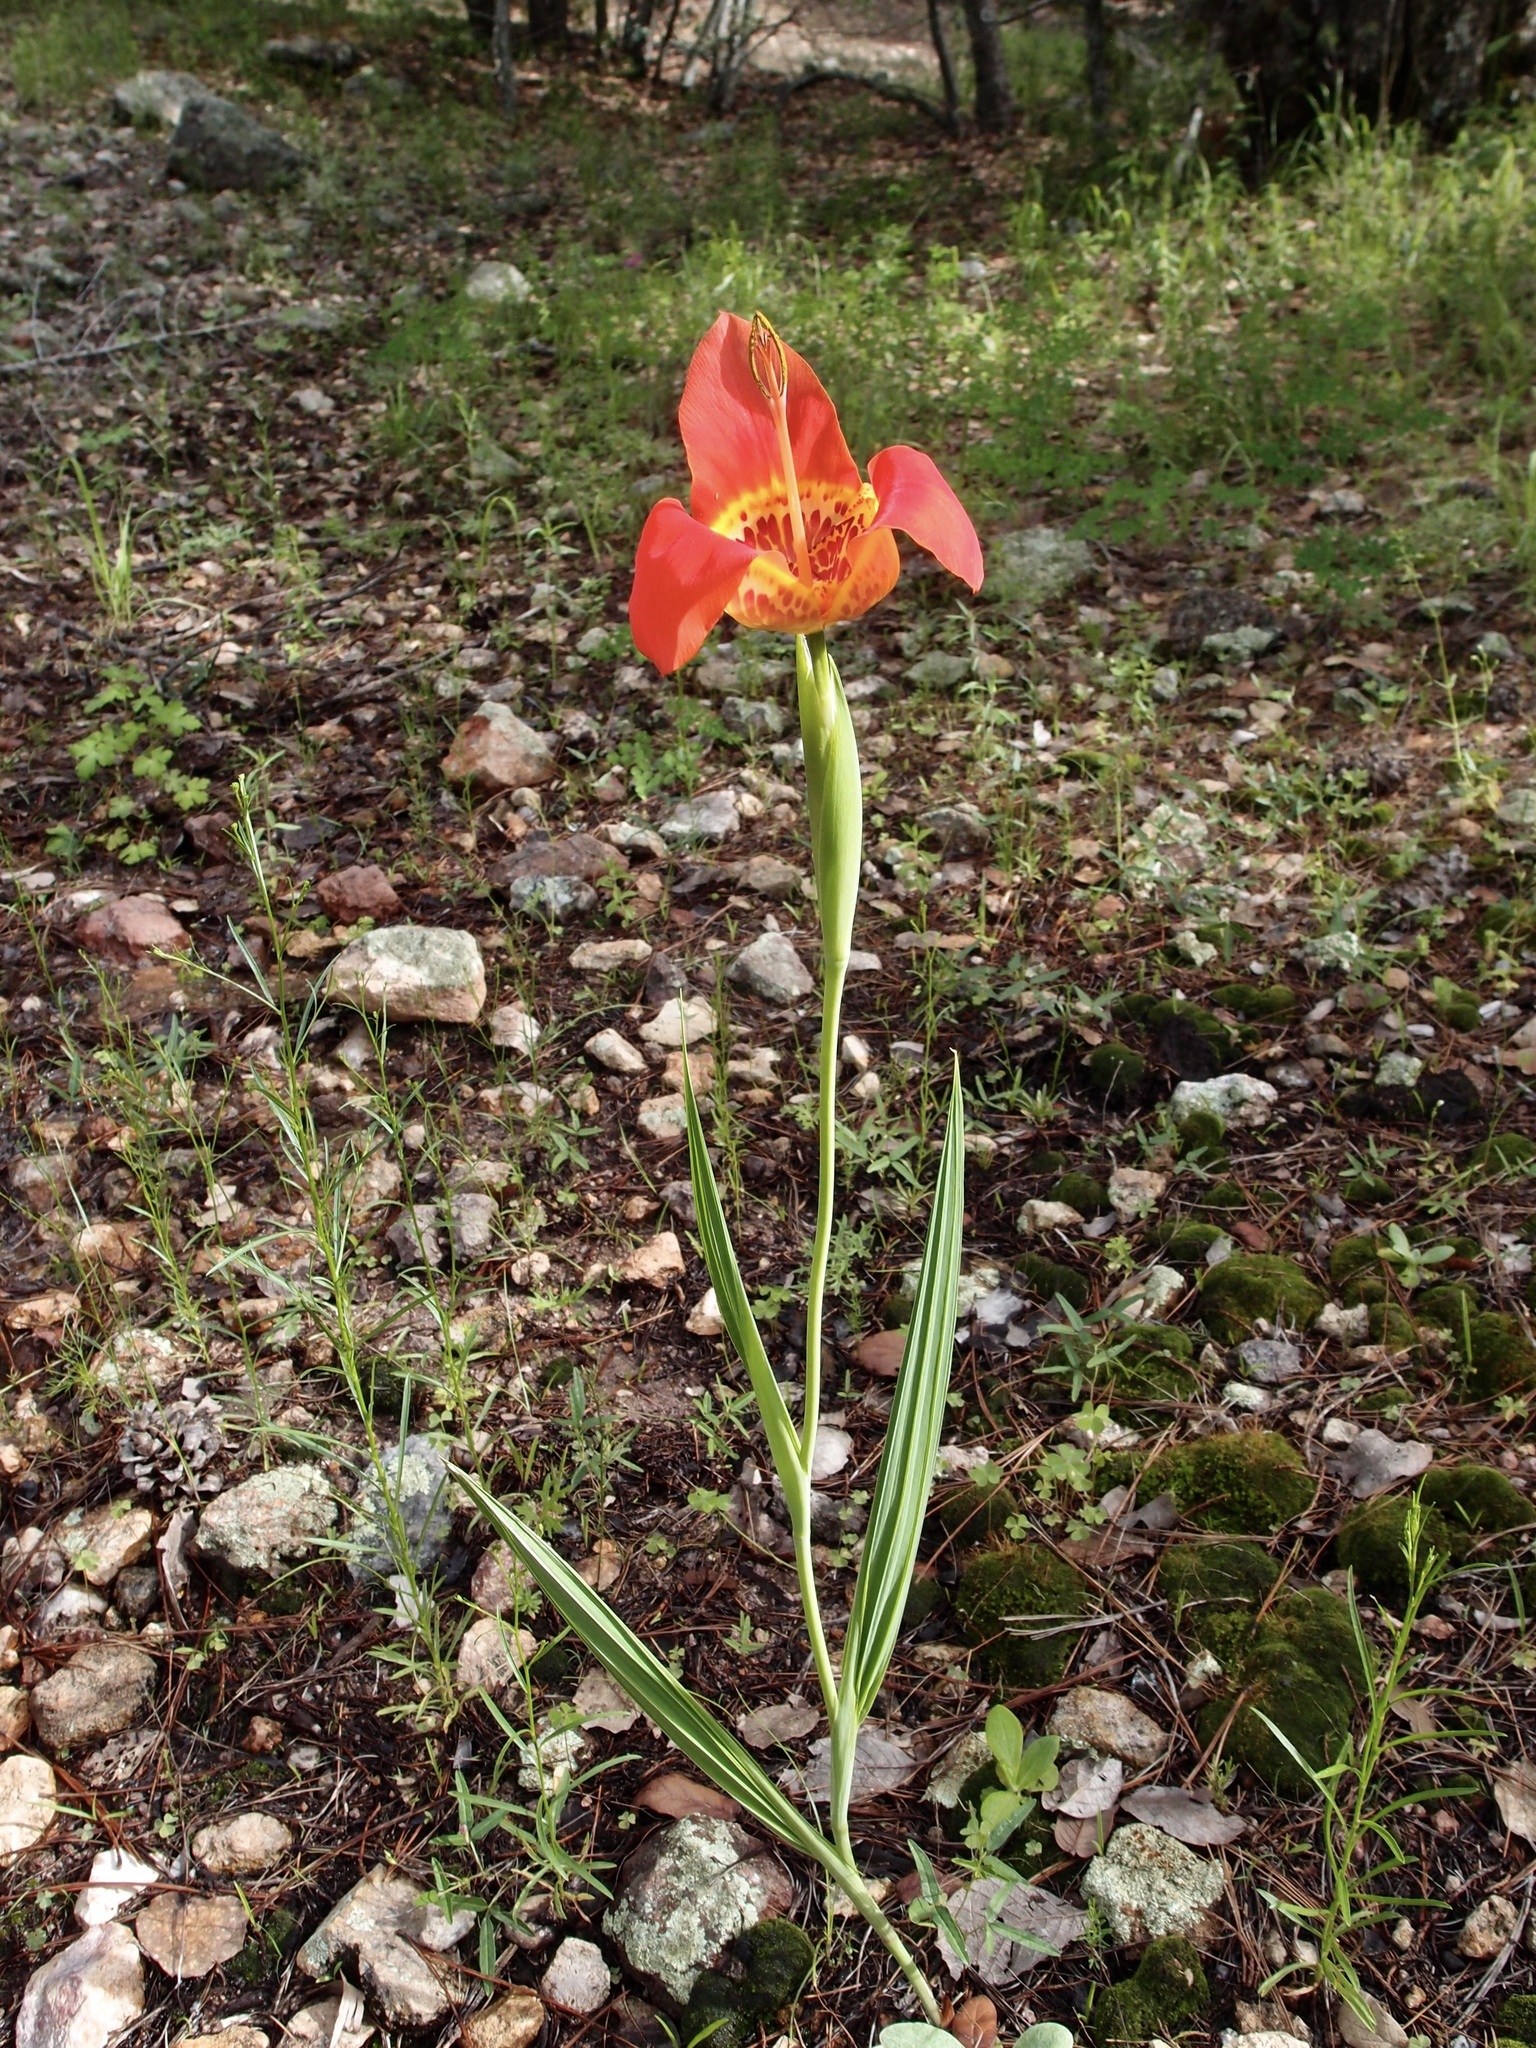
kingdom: Plantae
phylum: Tracheophyta
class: Liliopsida
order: Asparagales
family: Iridaceae
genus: Tigridia
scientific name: Tigridia pavonia
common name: Peacock-flower
